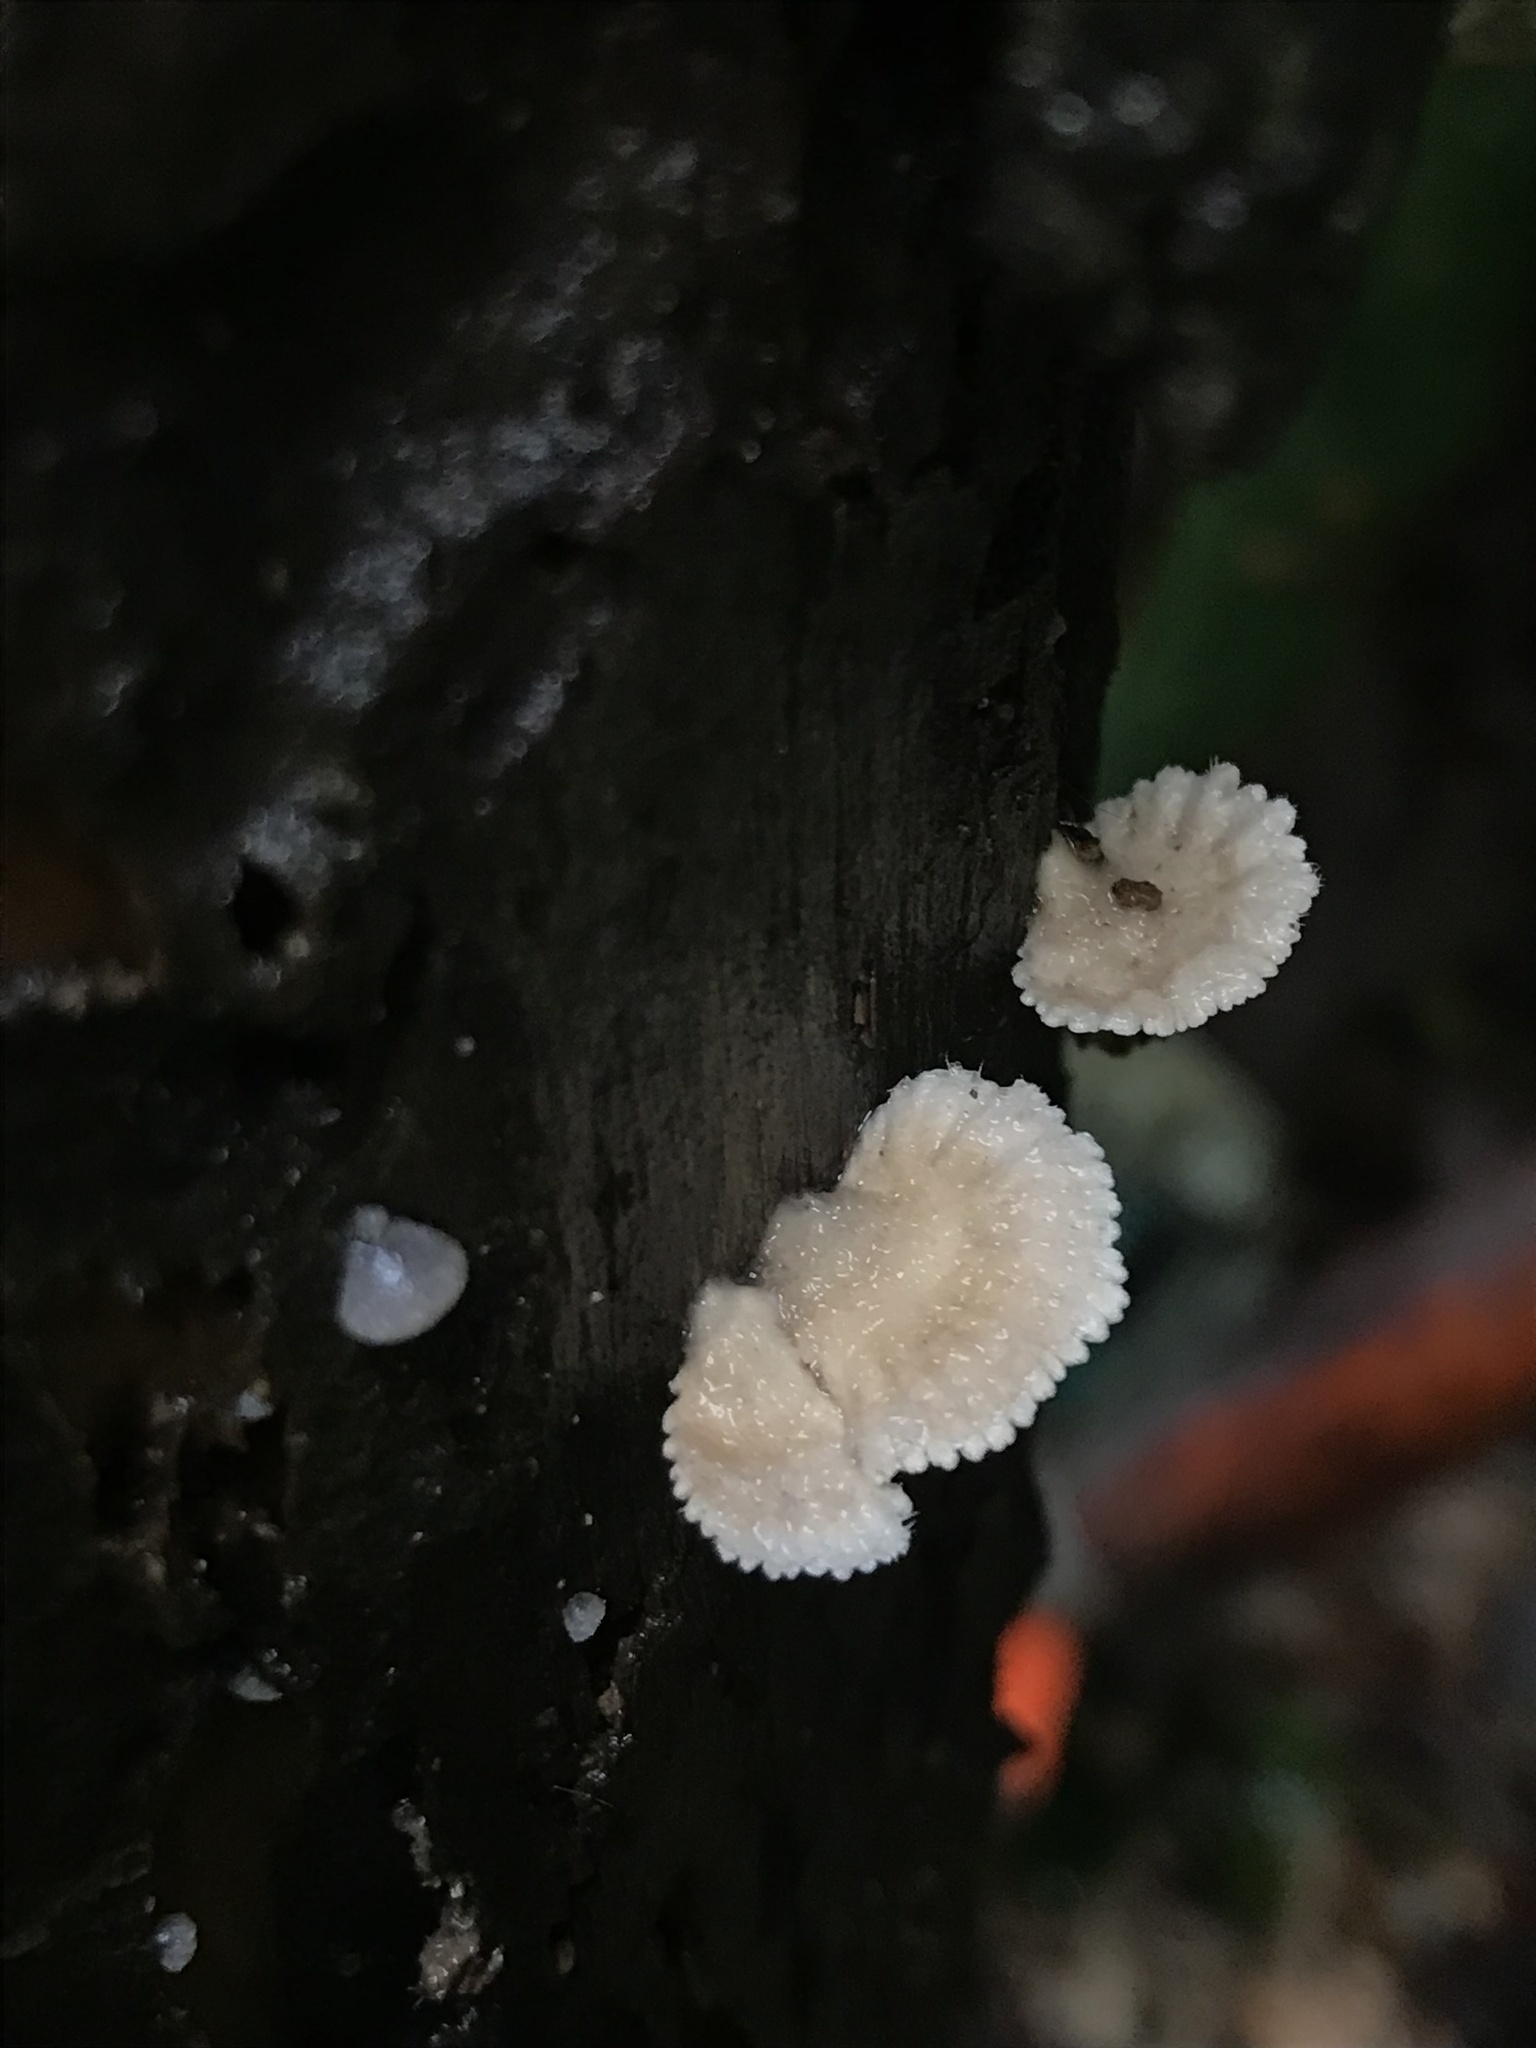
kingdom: Fungi
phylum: Basidiomycota
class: Agaricomycetes
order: Agaricales
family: Schizophyllaceae
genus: Schizophyllum
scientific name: Schizophyllum commune
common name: Common porecrust
